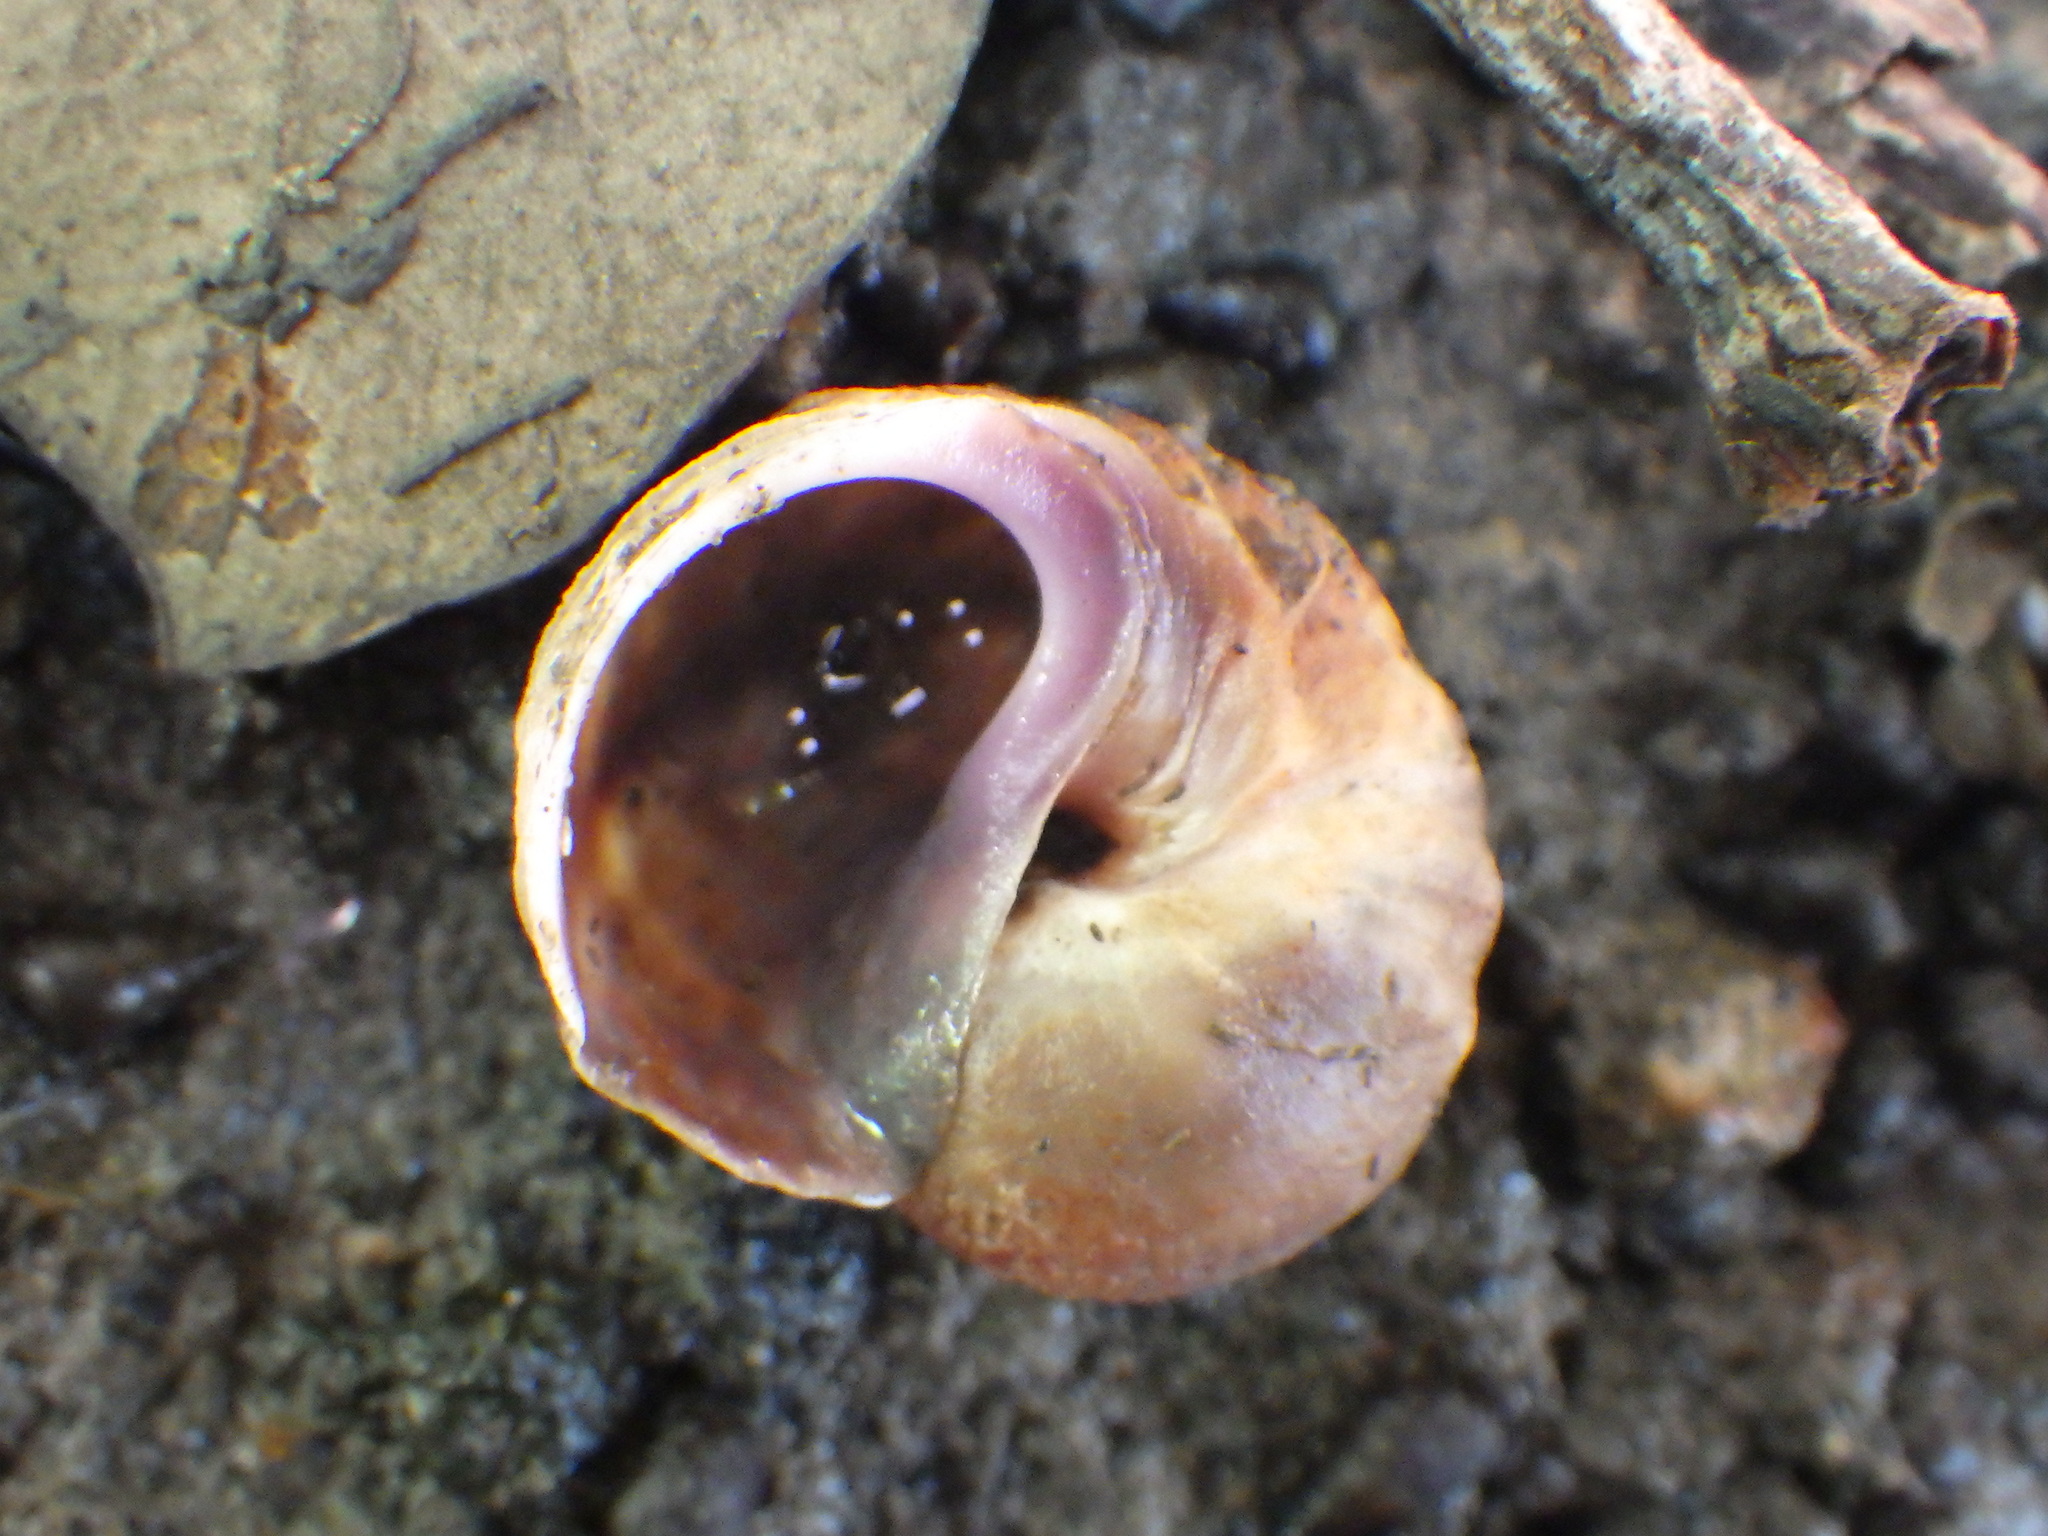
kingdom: Animalia
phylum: Mollusca
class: Gastropoda
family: Amphibolidae
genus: Amphibola
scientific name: Amphibola crenata
